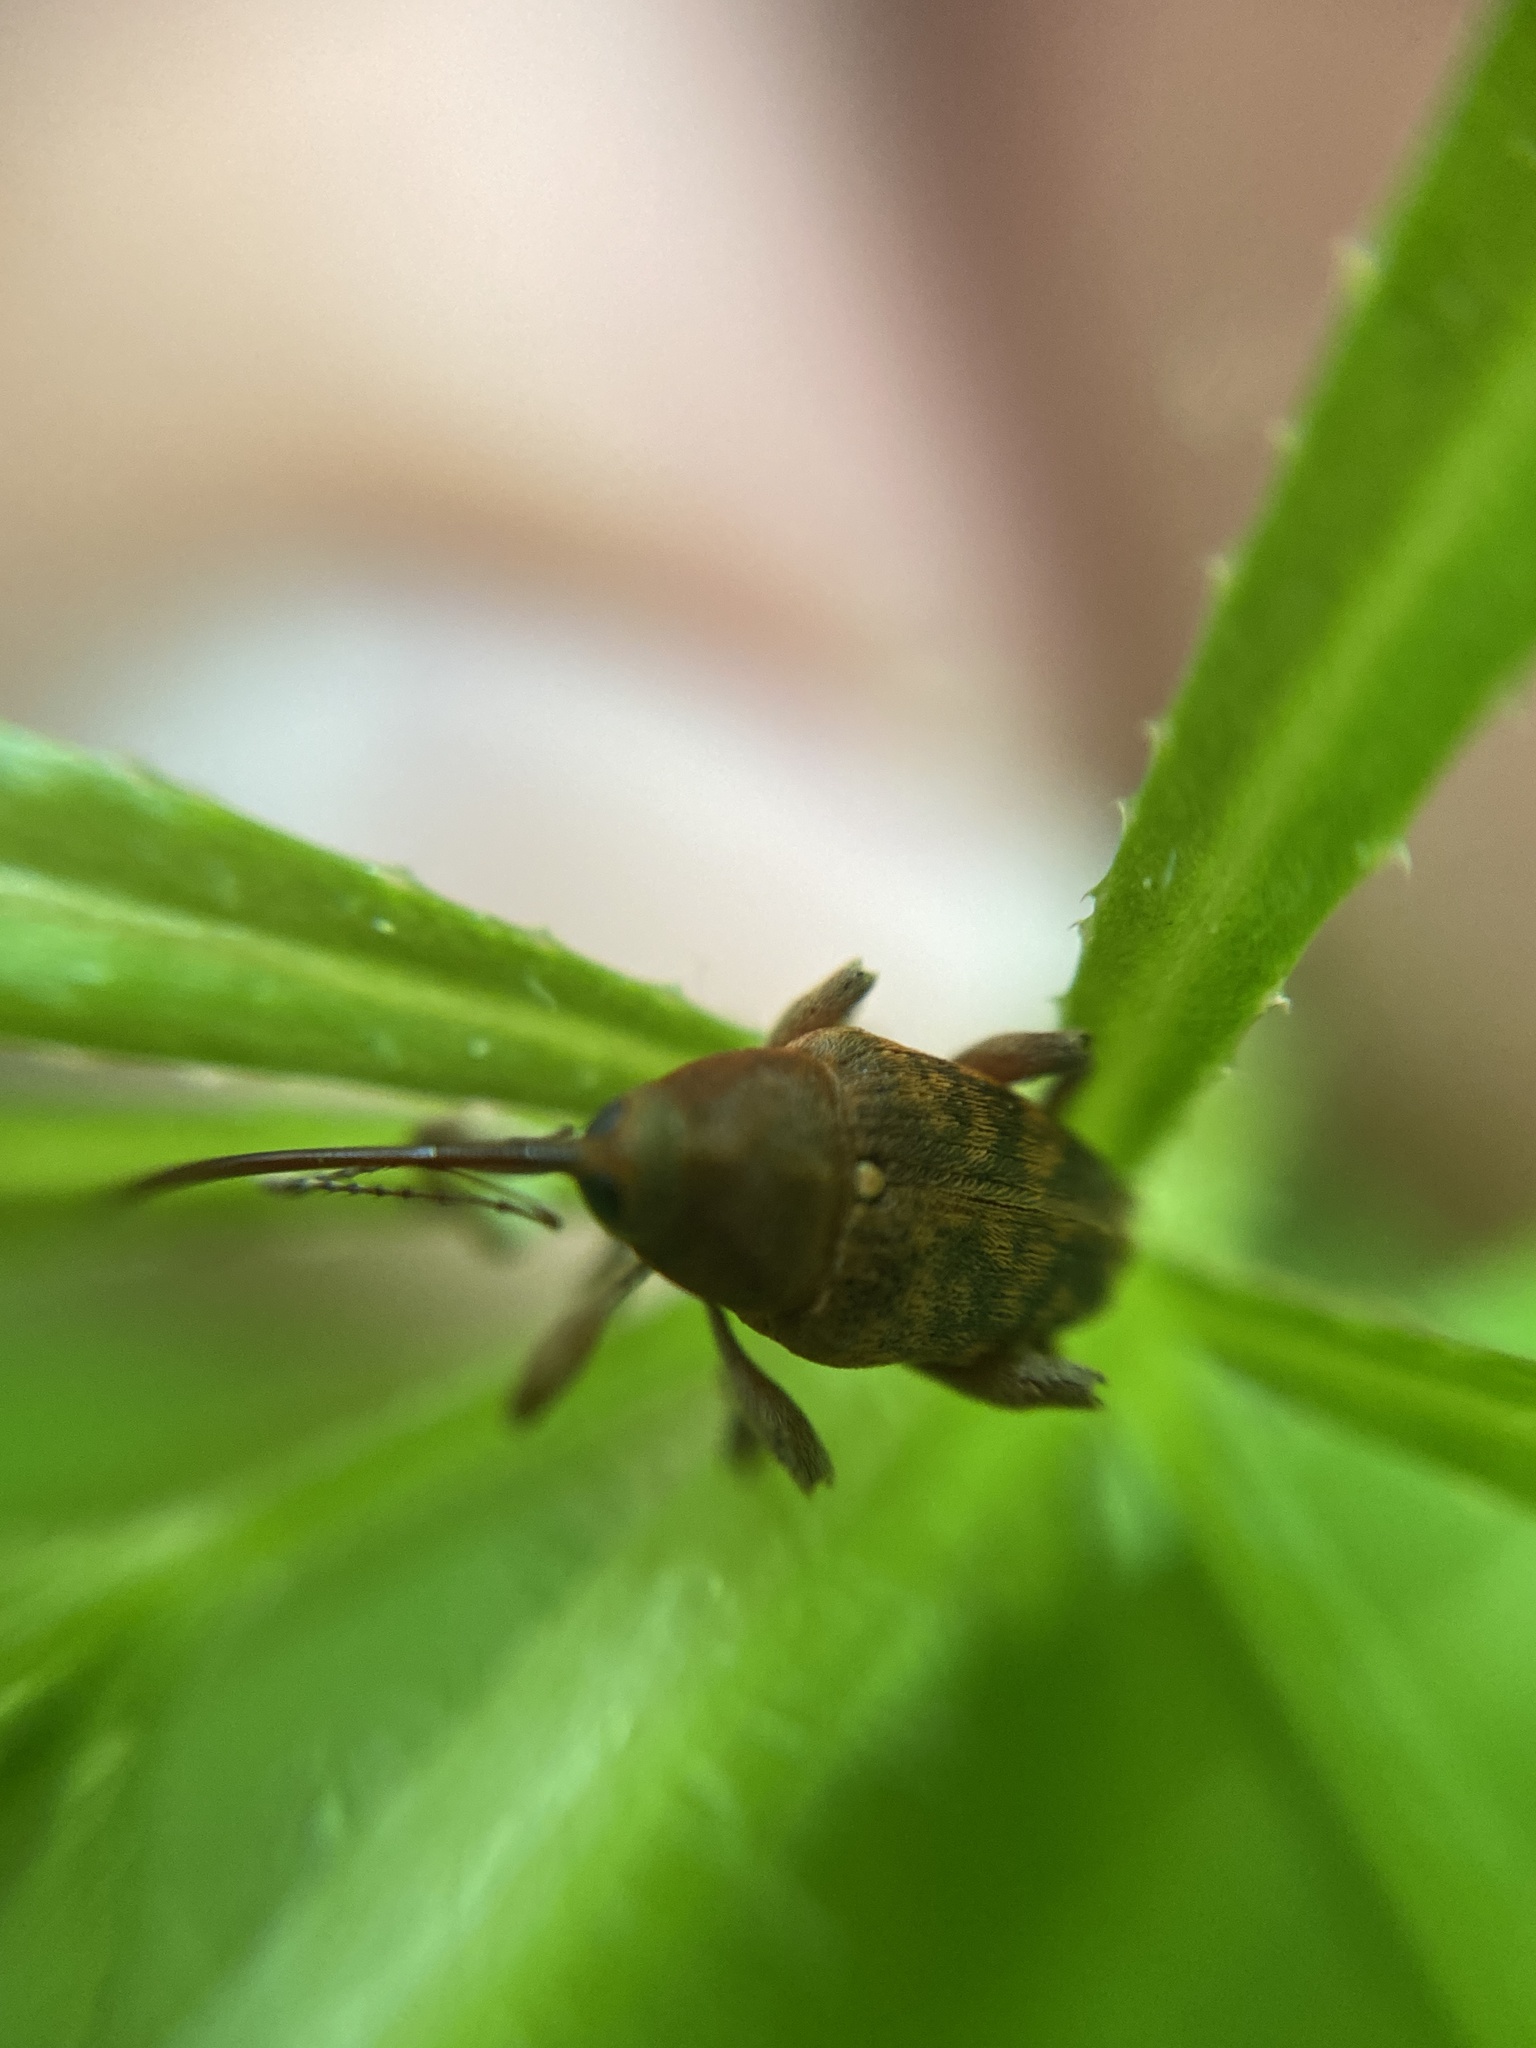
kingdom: Animalia
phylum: Arthropoda
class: Insecta
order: Coleoptera
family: Curculionidae
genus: Curculio
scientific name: Curculio glandium
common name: Acorn weevil
